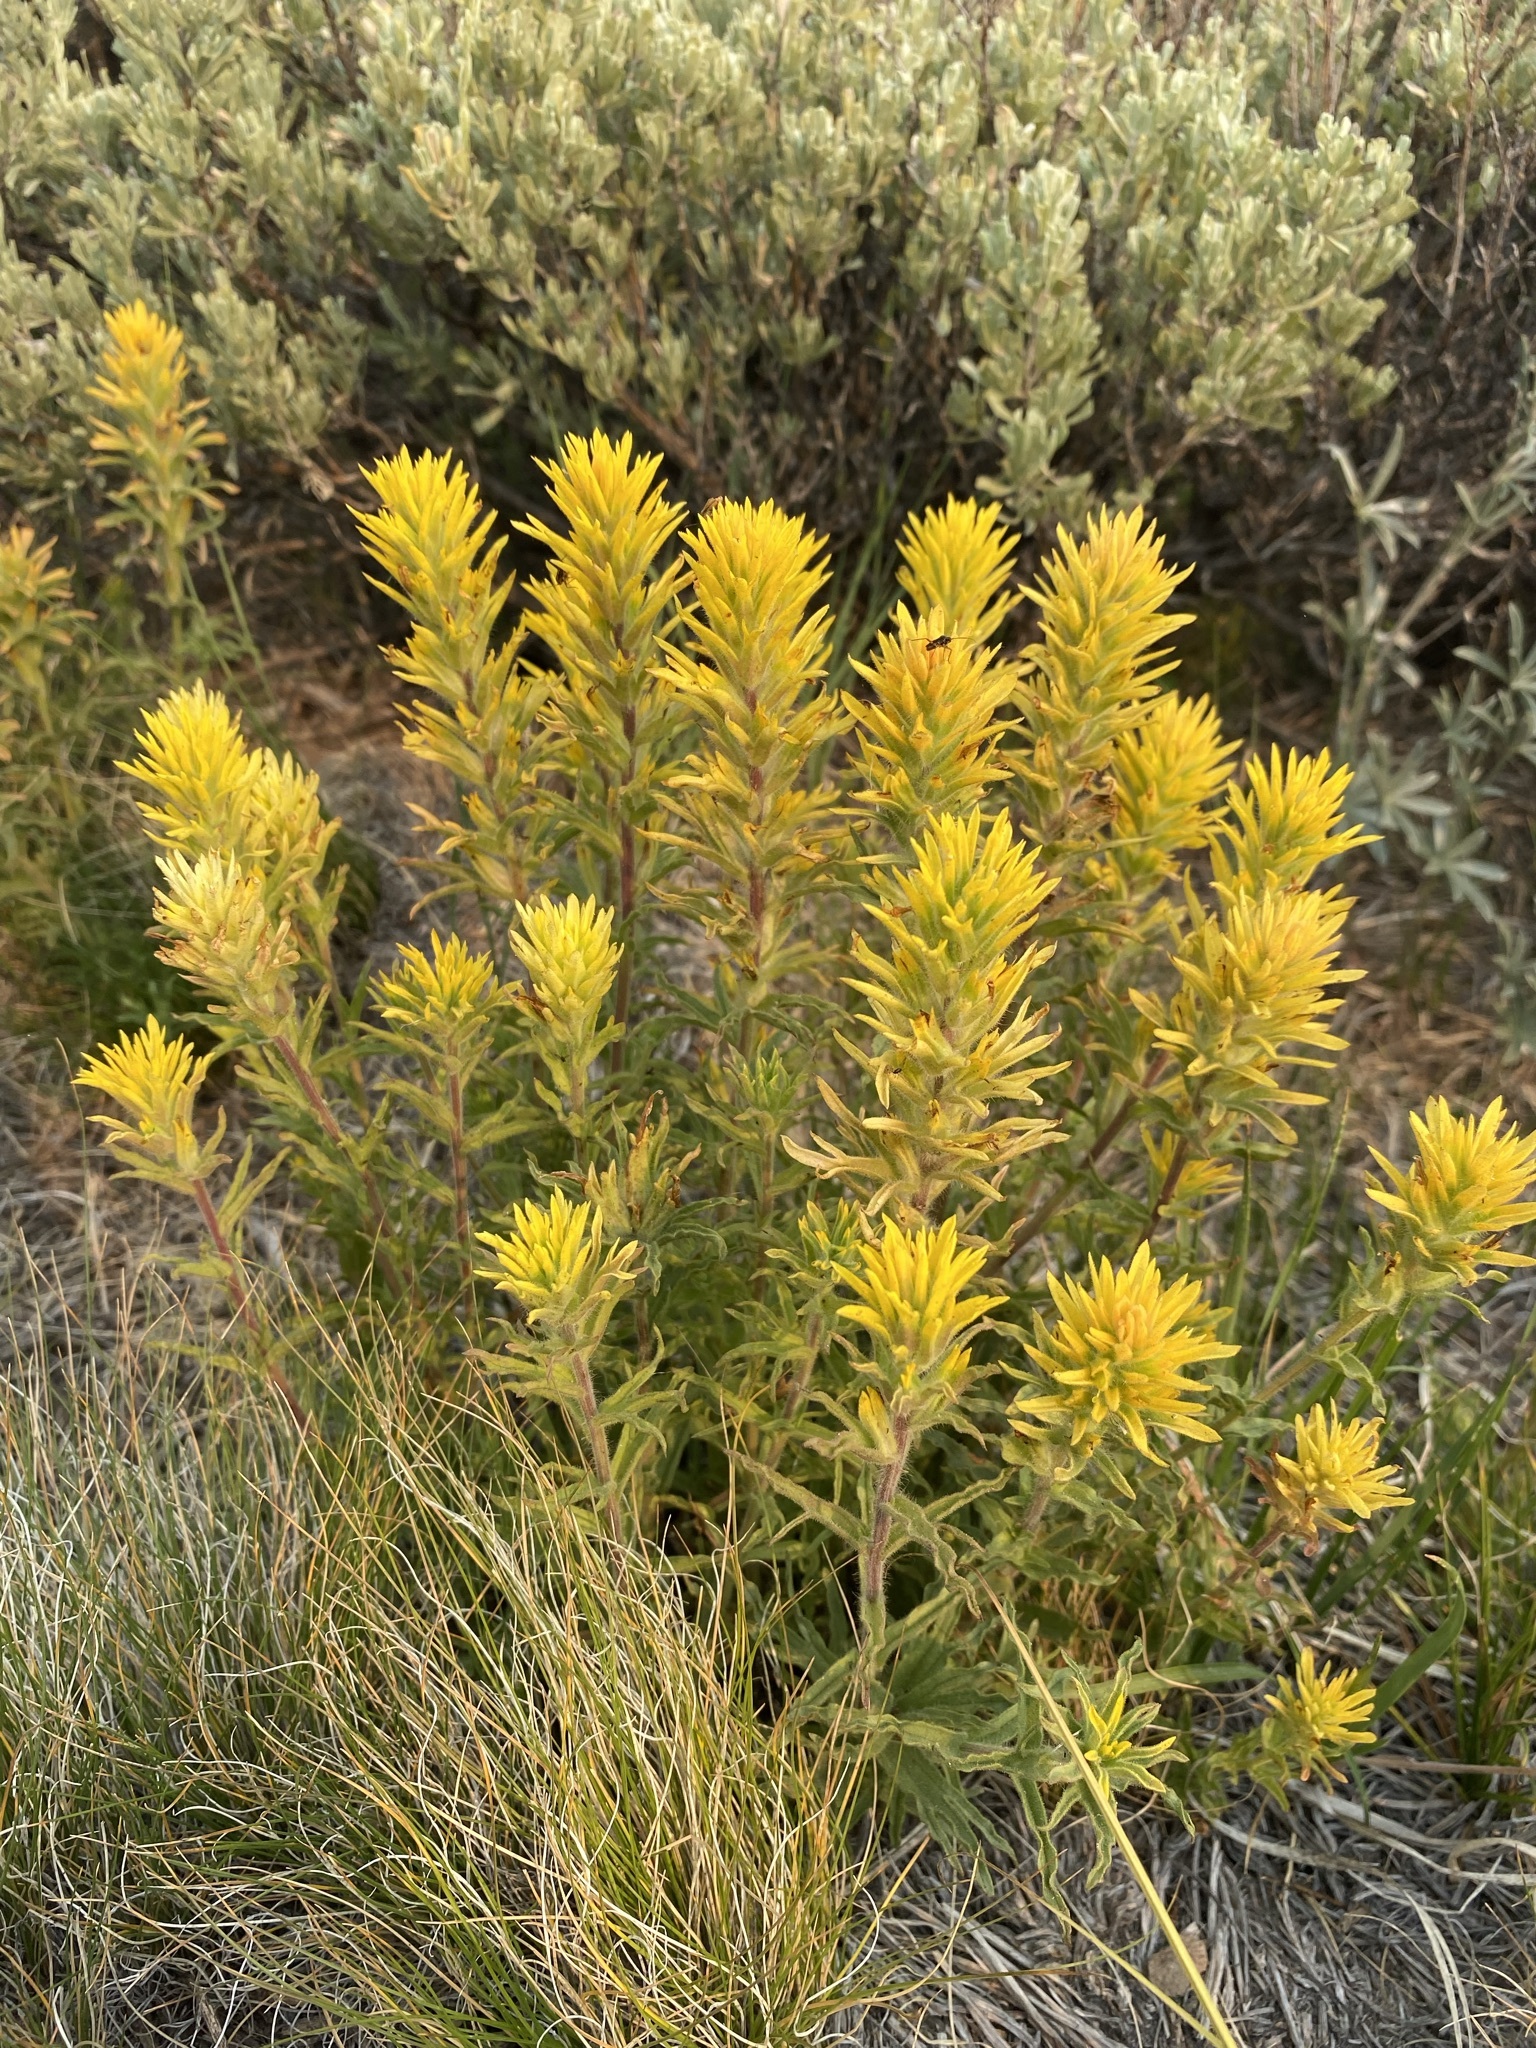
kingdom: Plantae
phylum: Tracheophyta
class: Magnoliopsida
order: Lamiales
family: Orobanchaceae
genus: Castilleja
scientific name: Castilleja applegatei
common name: Wavy-leaf paintbrush
